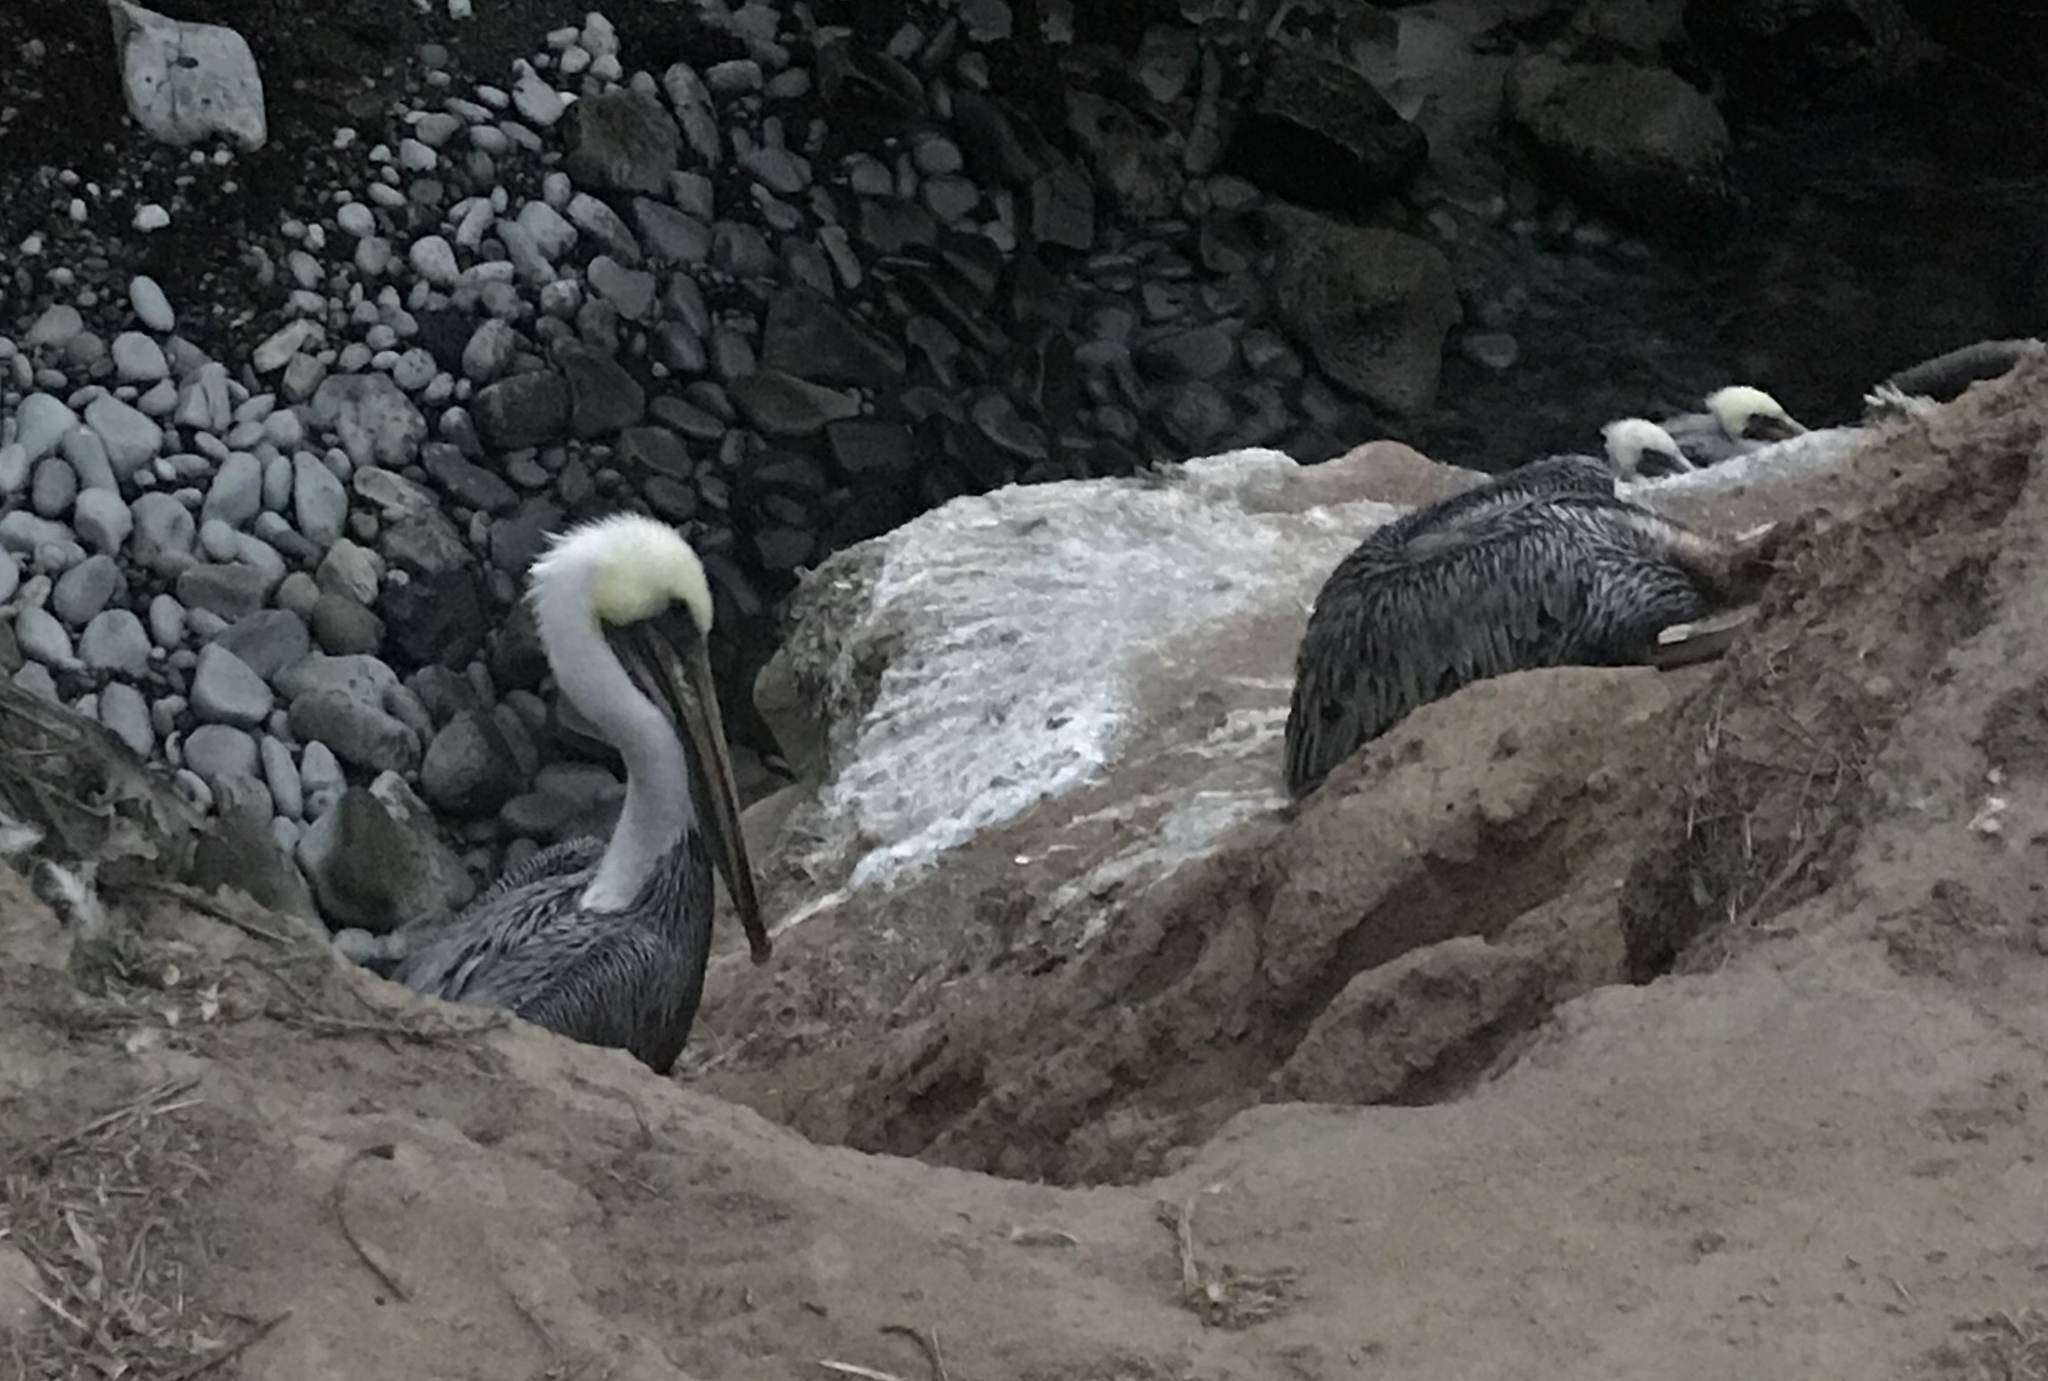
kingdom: Animalia
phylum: Chordata
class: Aves
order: Pelecaniformes
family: Pelecanidae
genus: Pelecanus
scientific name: Pelecanus occidentalis
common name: Brown pelican
